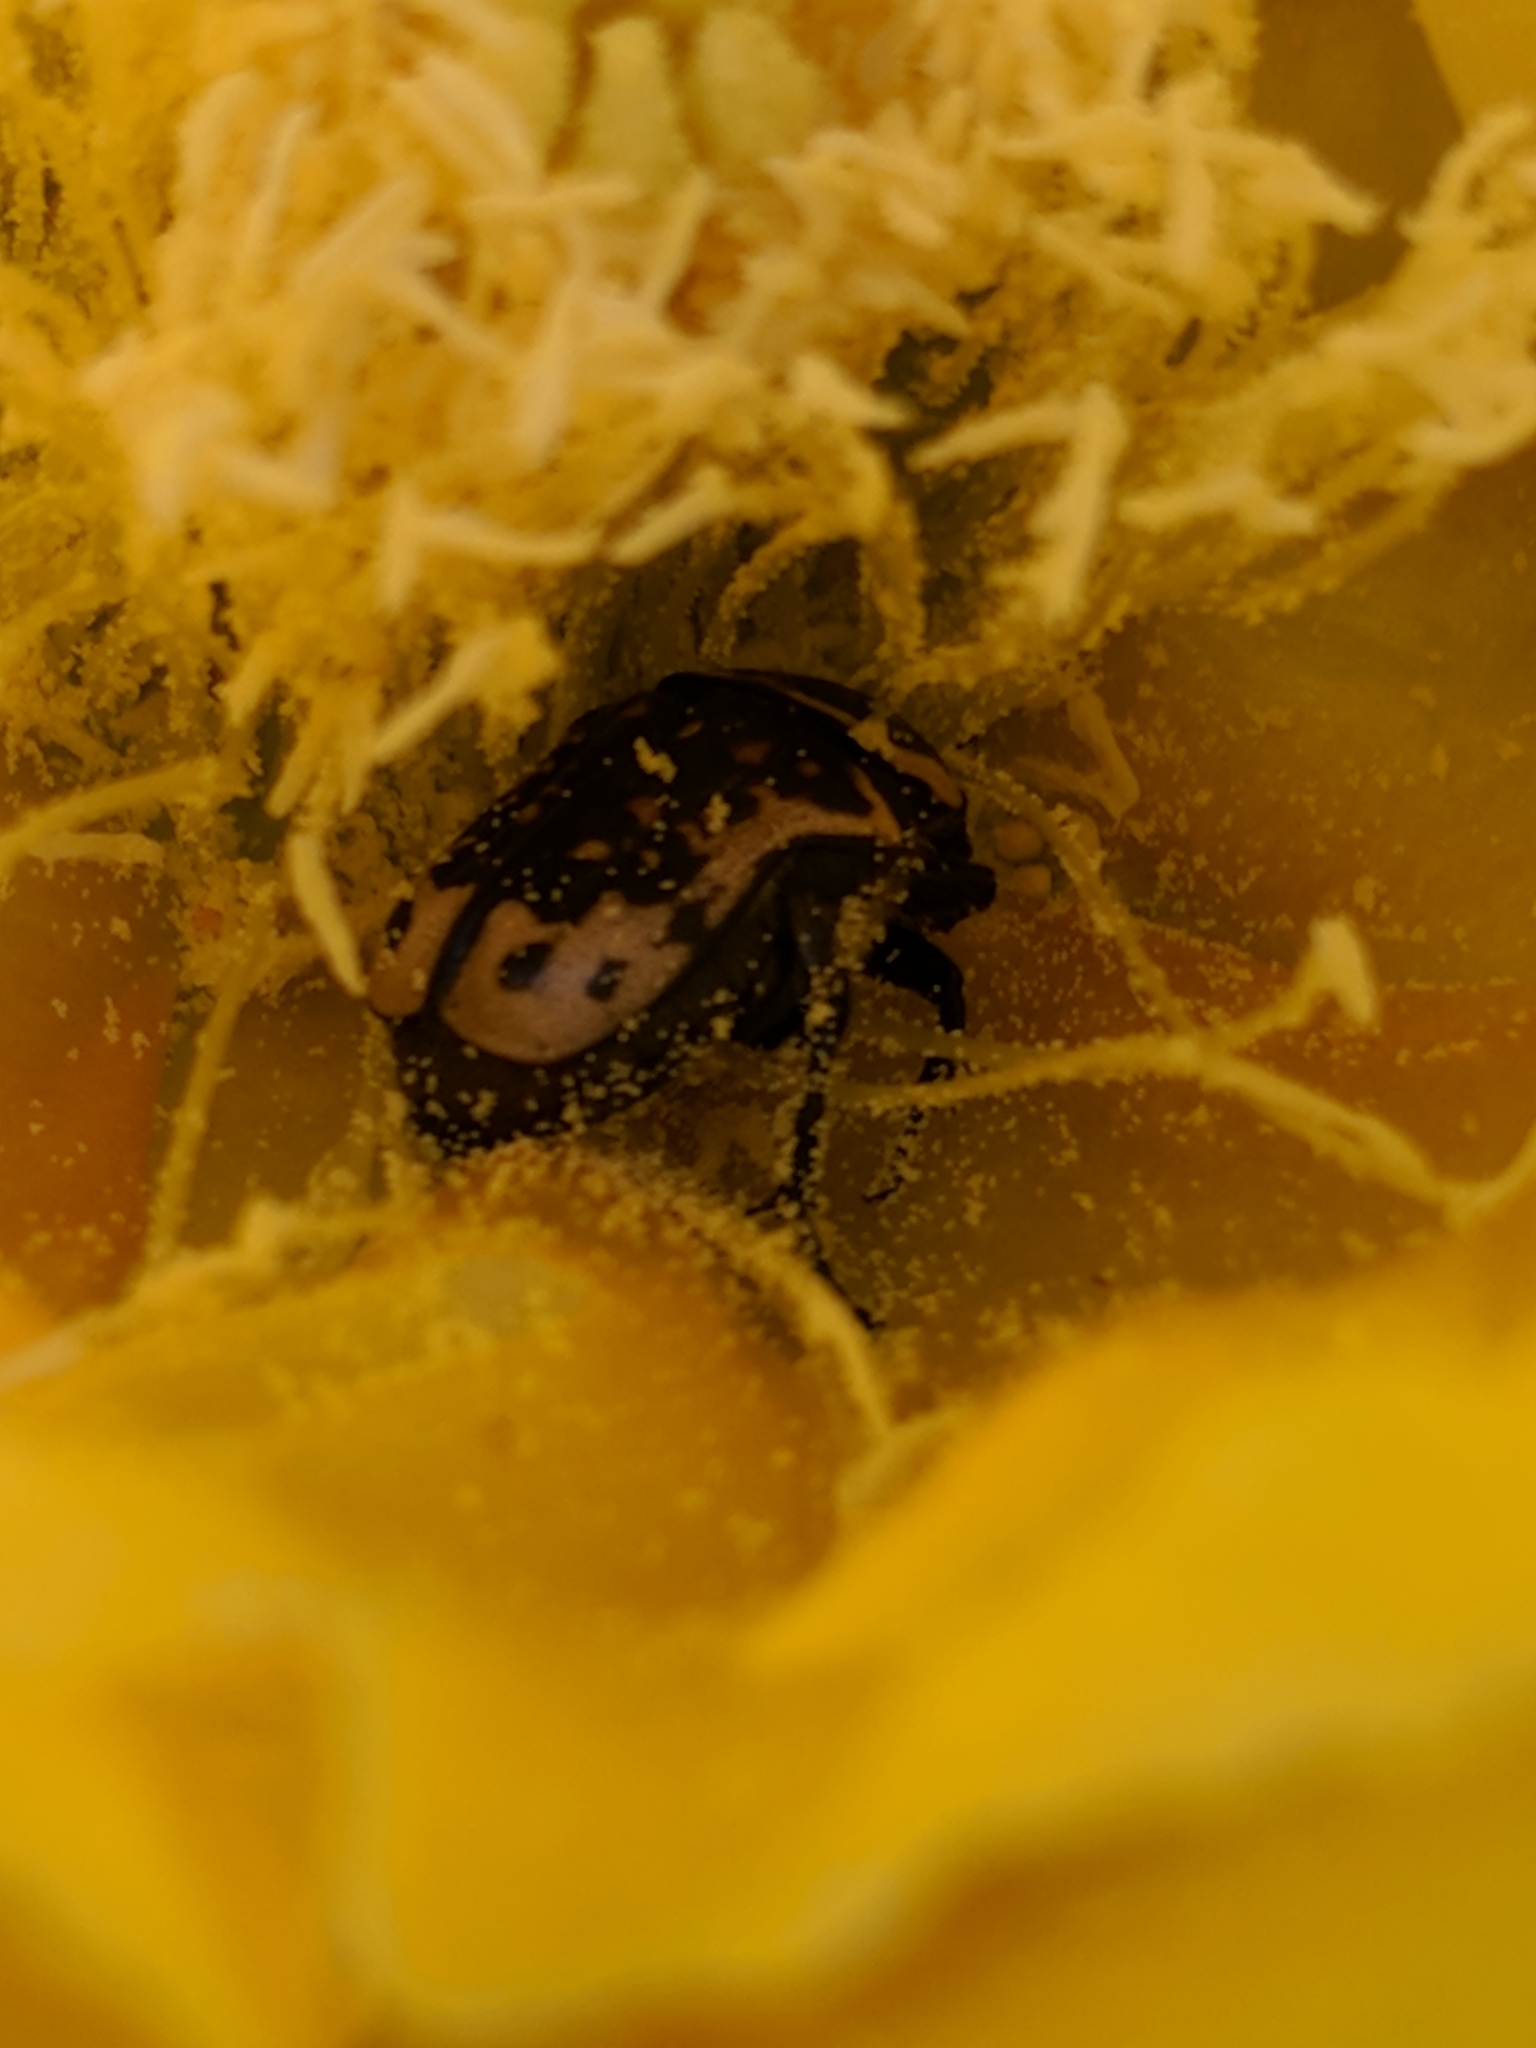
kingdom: Animalia
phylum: Arthropoda
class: Insecta
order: Coleoptera
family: Scarabaeidae
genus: Euphoria
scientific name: Euphoria kernii
